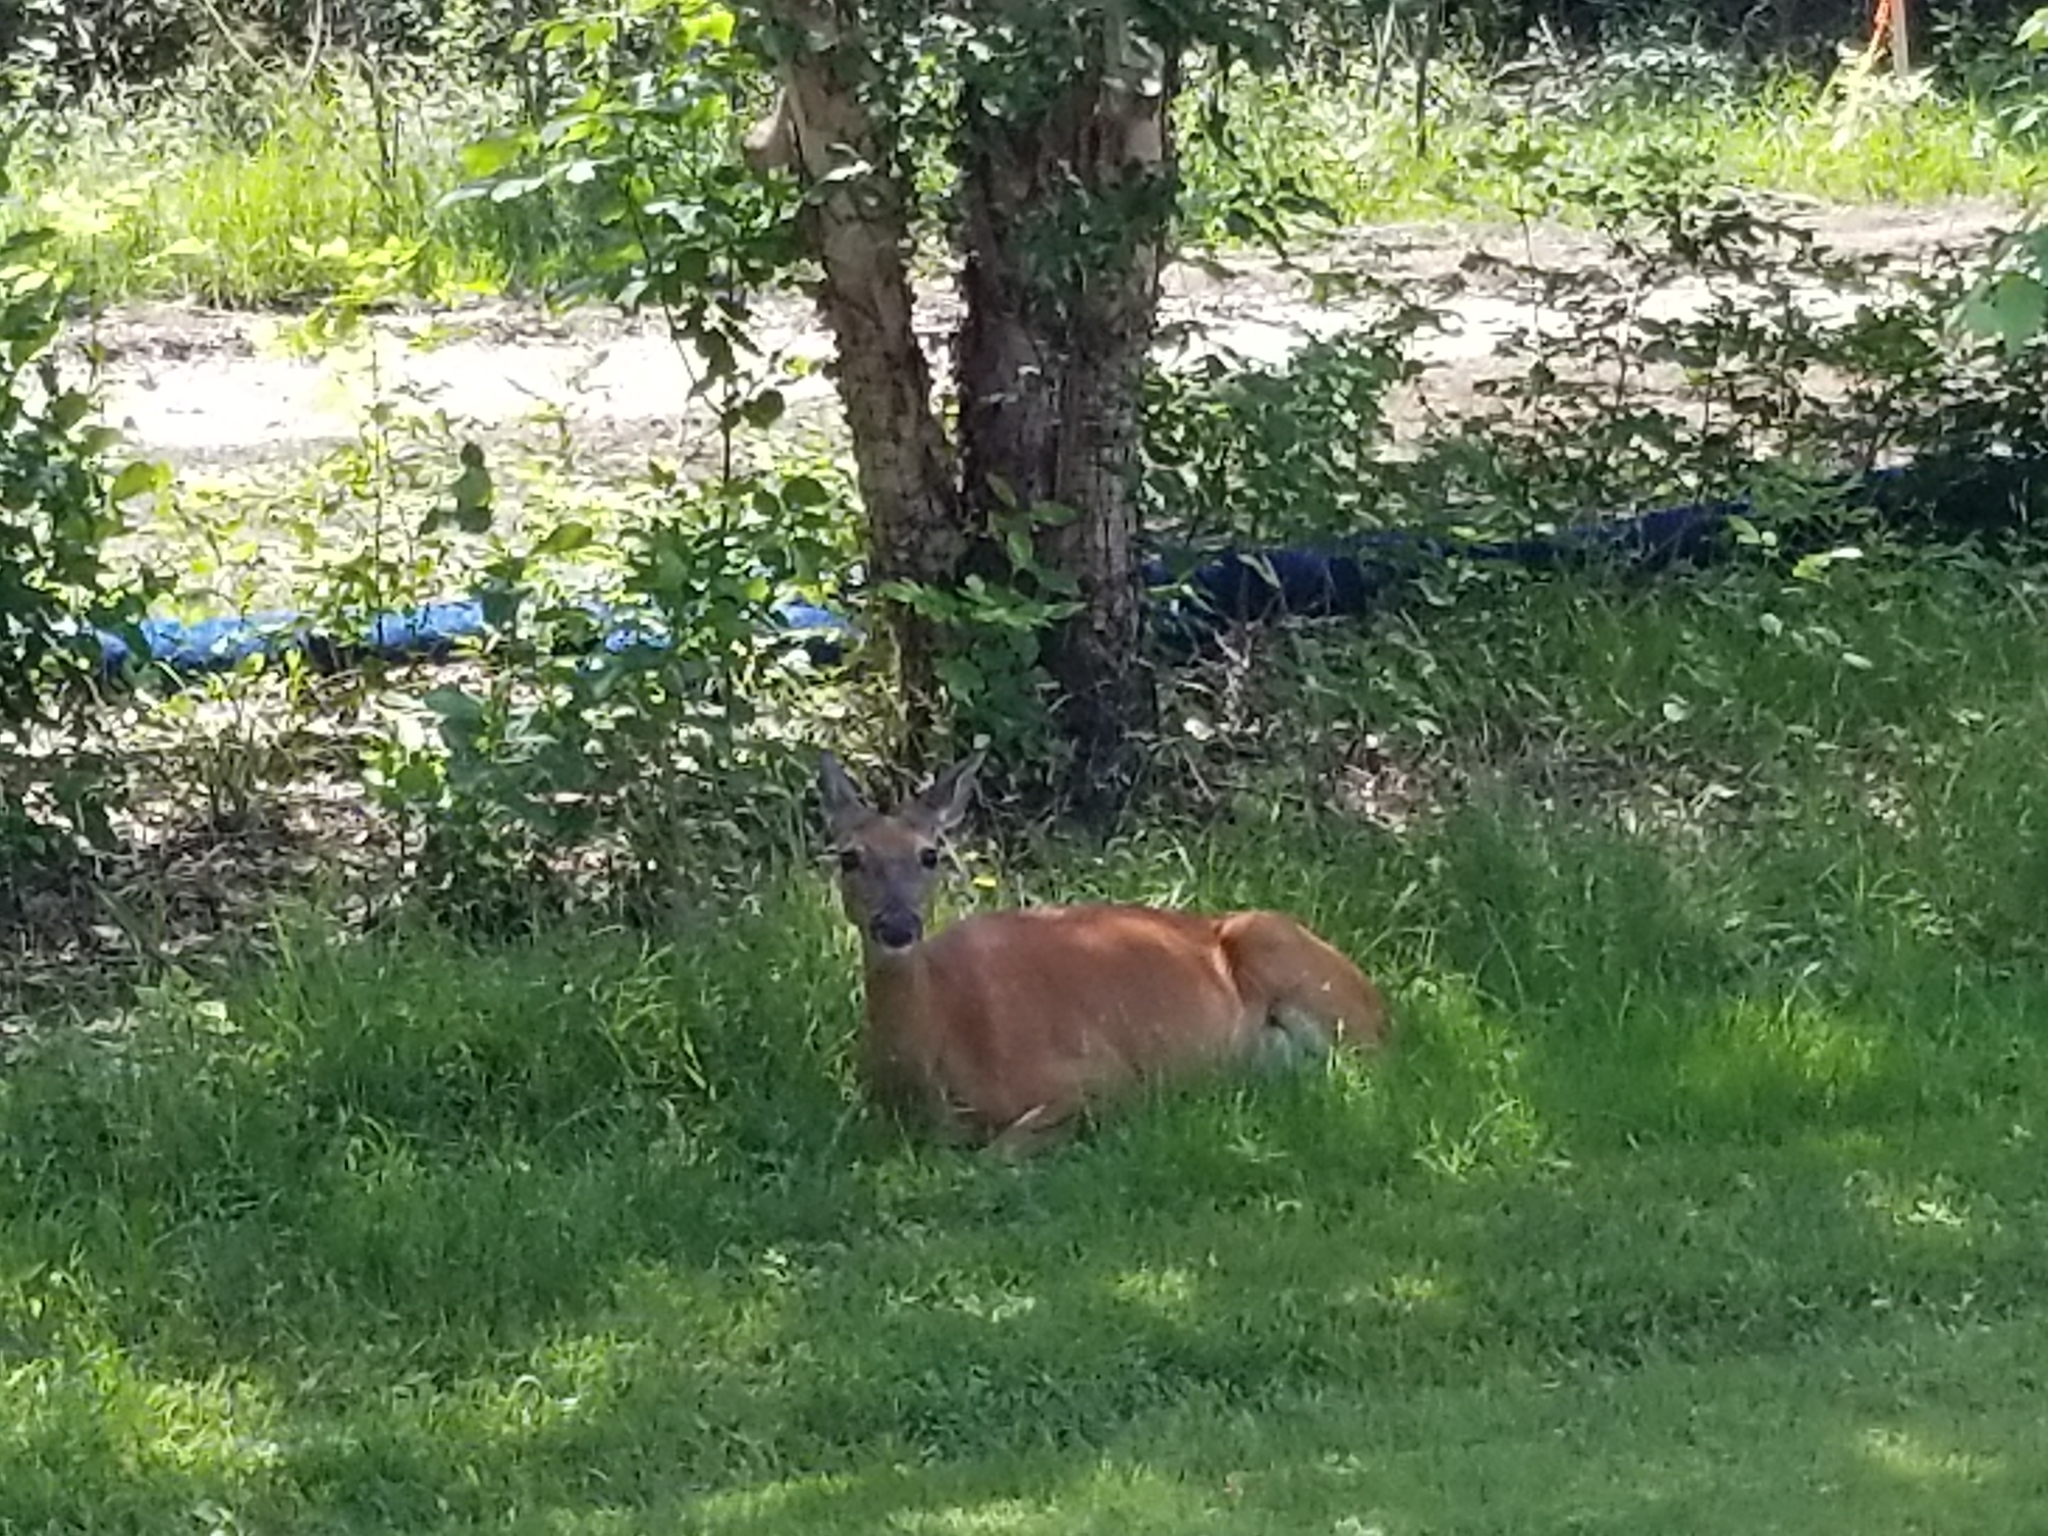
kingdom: Animalia
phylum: Chordata
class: Mammalia
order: Artiodactyla
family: Cervidae
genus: Odocoileus
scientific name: Odocoileus virginianus
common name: White-tailed deer
